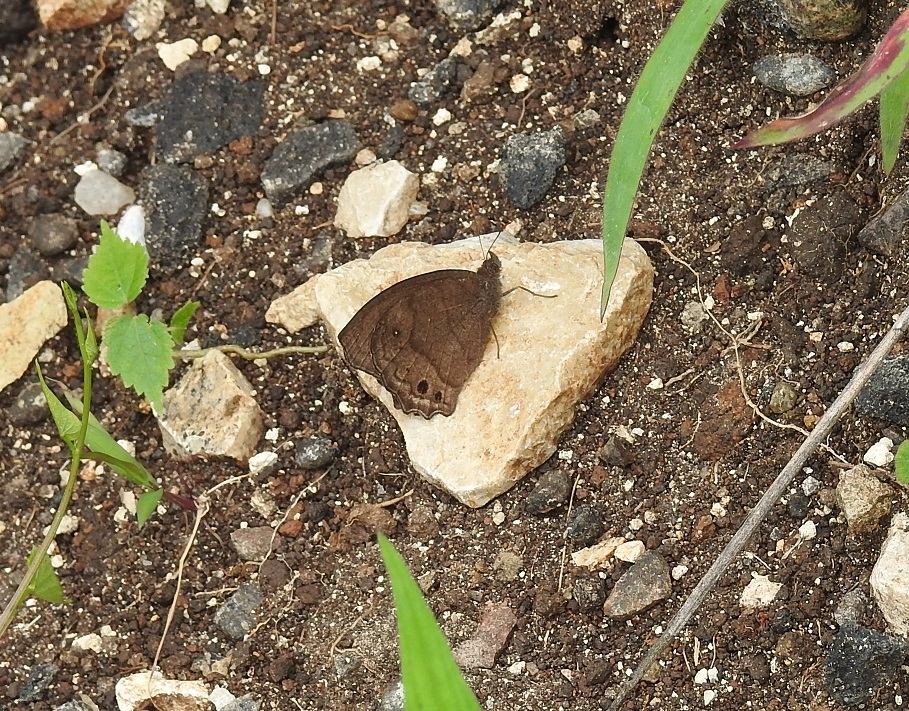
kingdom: Animalia
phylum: Arthropoda
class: Insecta
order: Lepidoptera
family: Nymphalidae
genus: Pindis
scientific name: Pindis squamistriga
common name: Variable satyr
